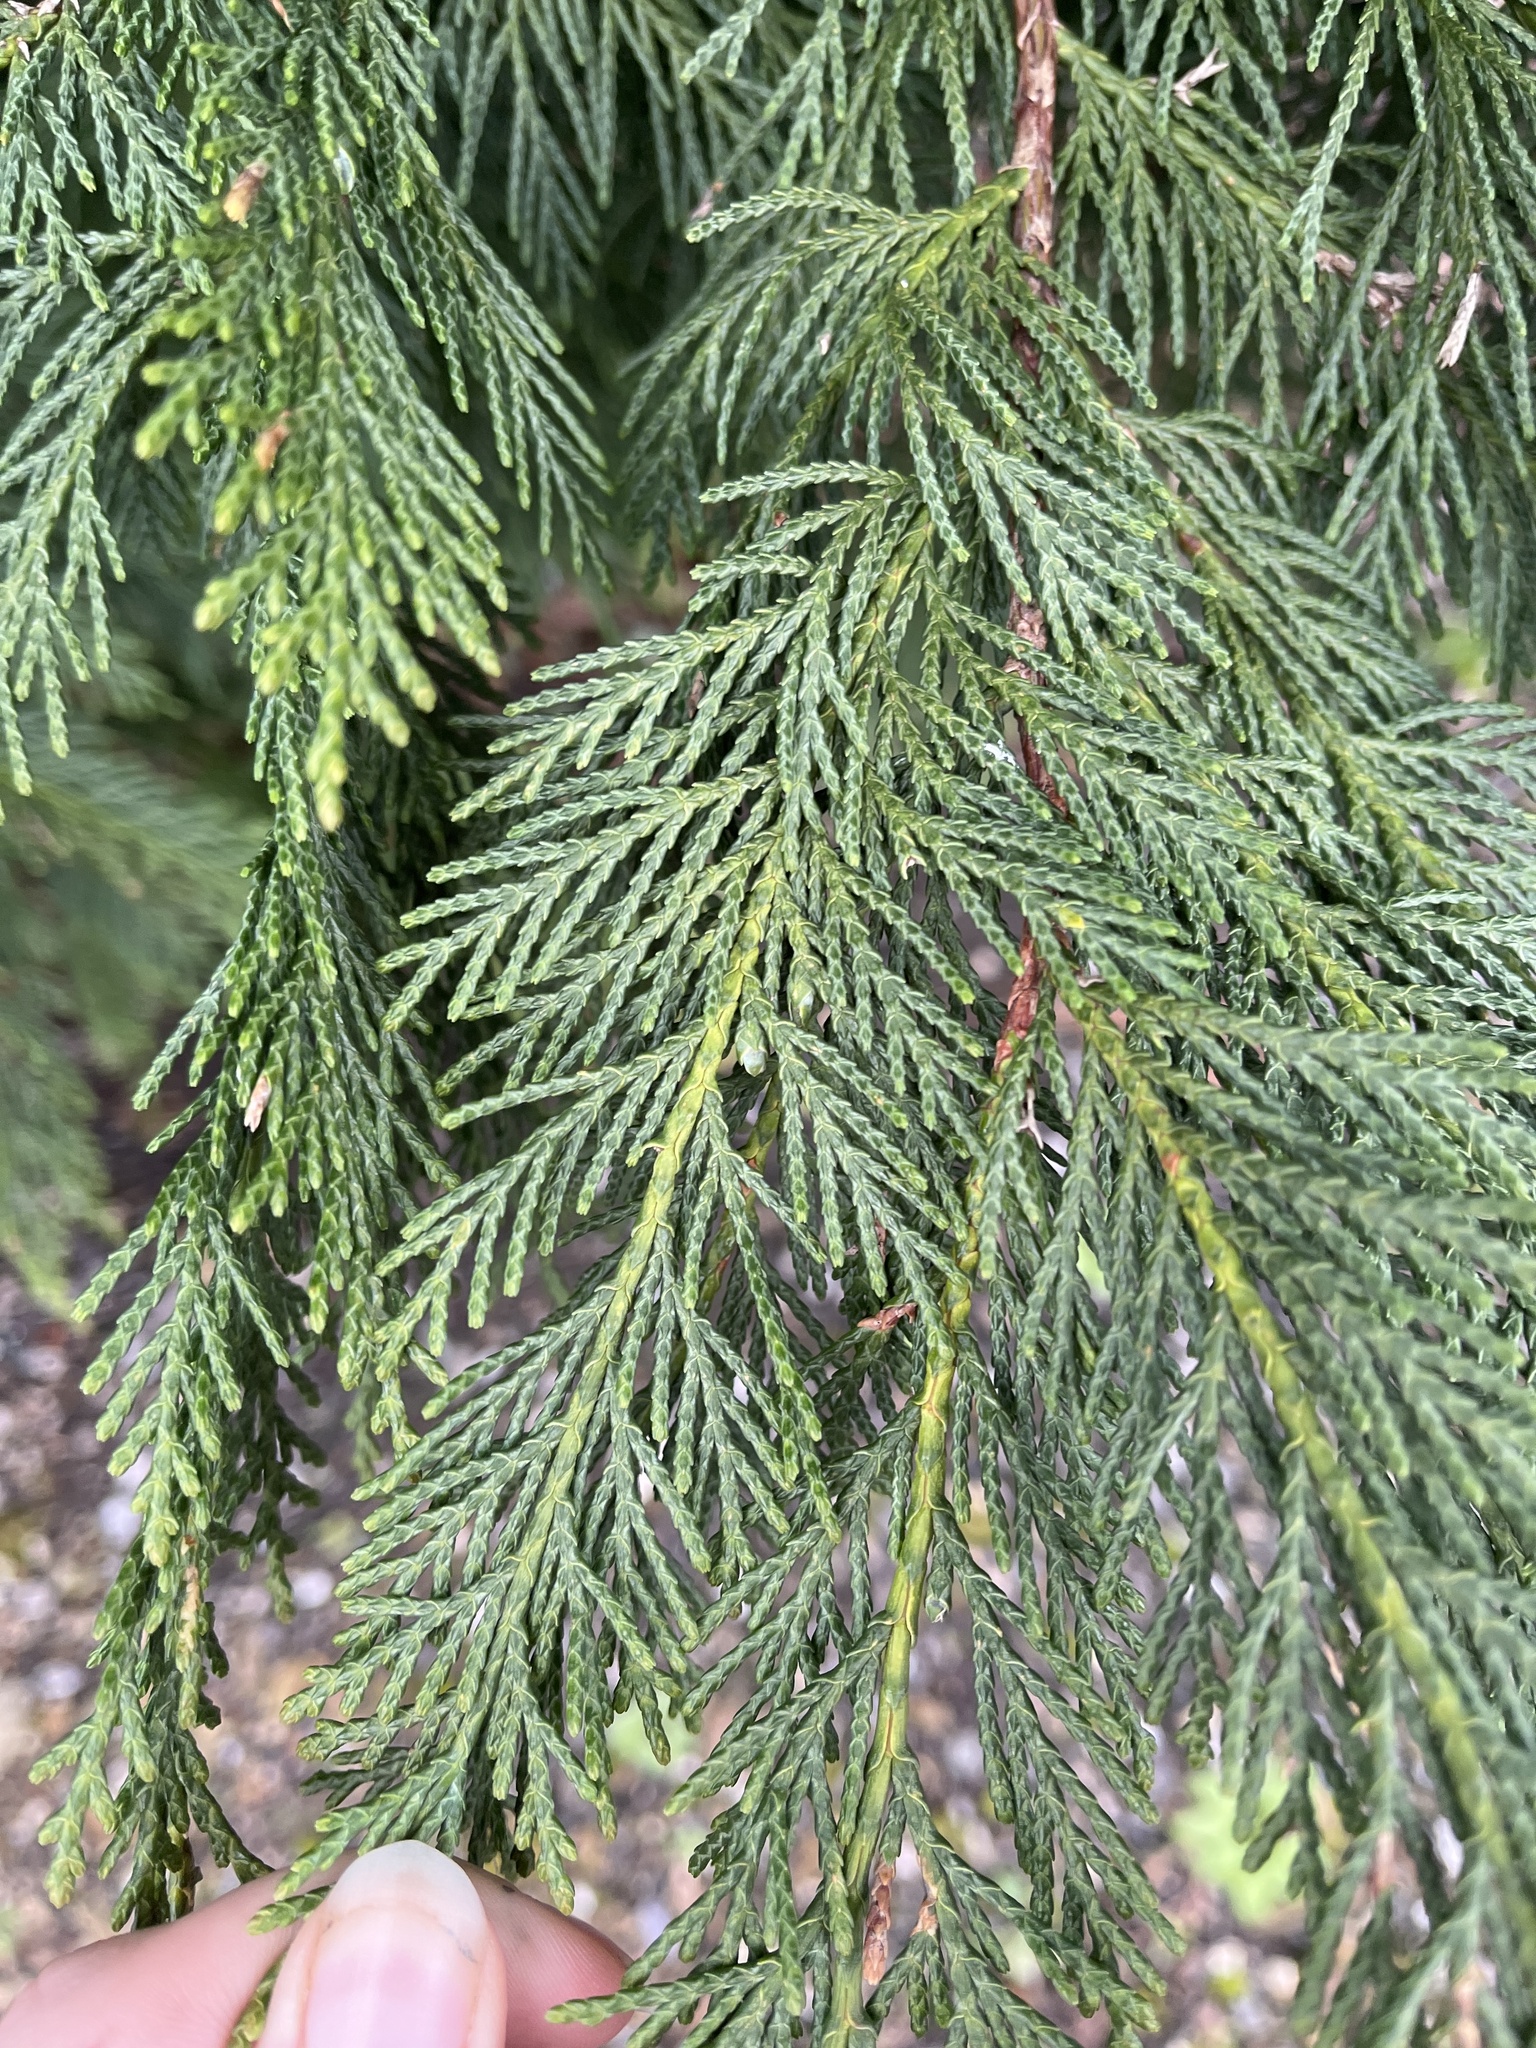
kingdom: Plantae
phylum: Tracheophyta
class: Pinopsida
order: Pinales
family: Cupressaceae
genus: Chamaecyparis
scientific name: Chamaecyparis lawsoniana
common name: Lawson's cypress
